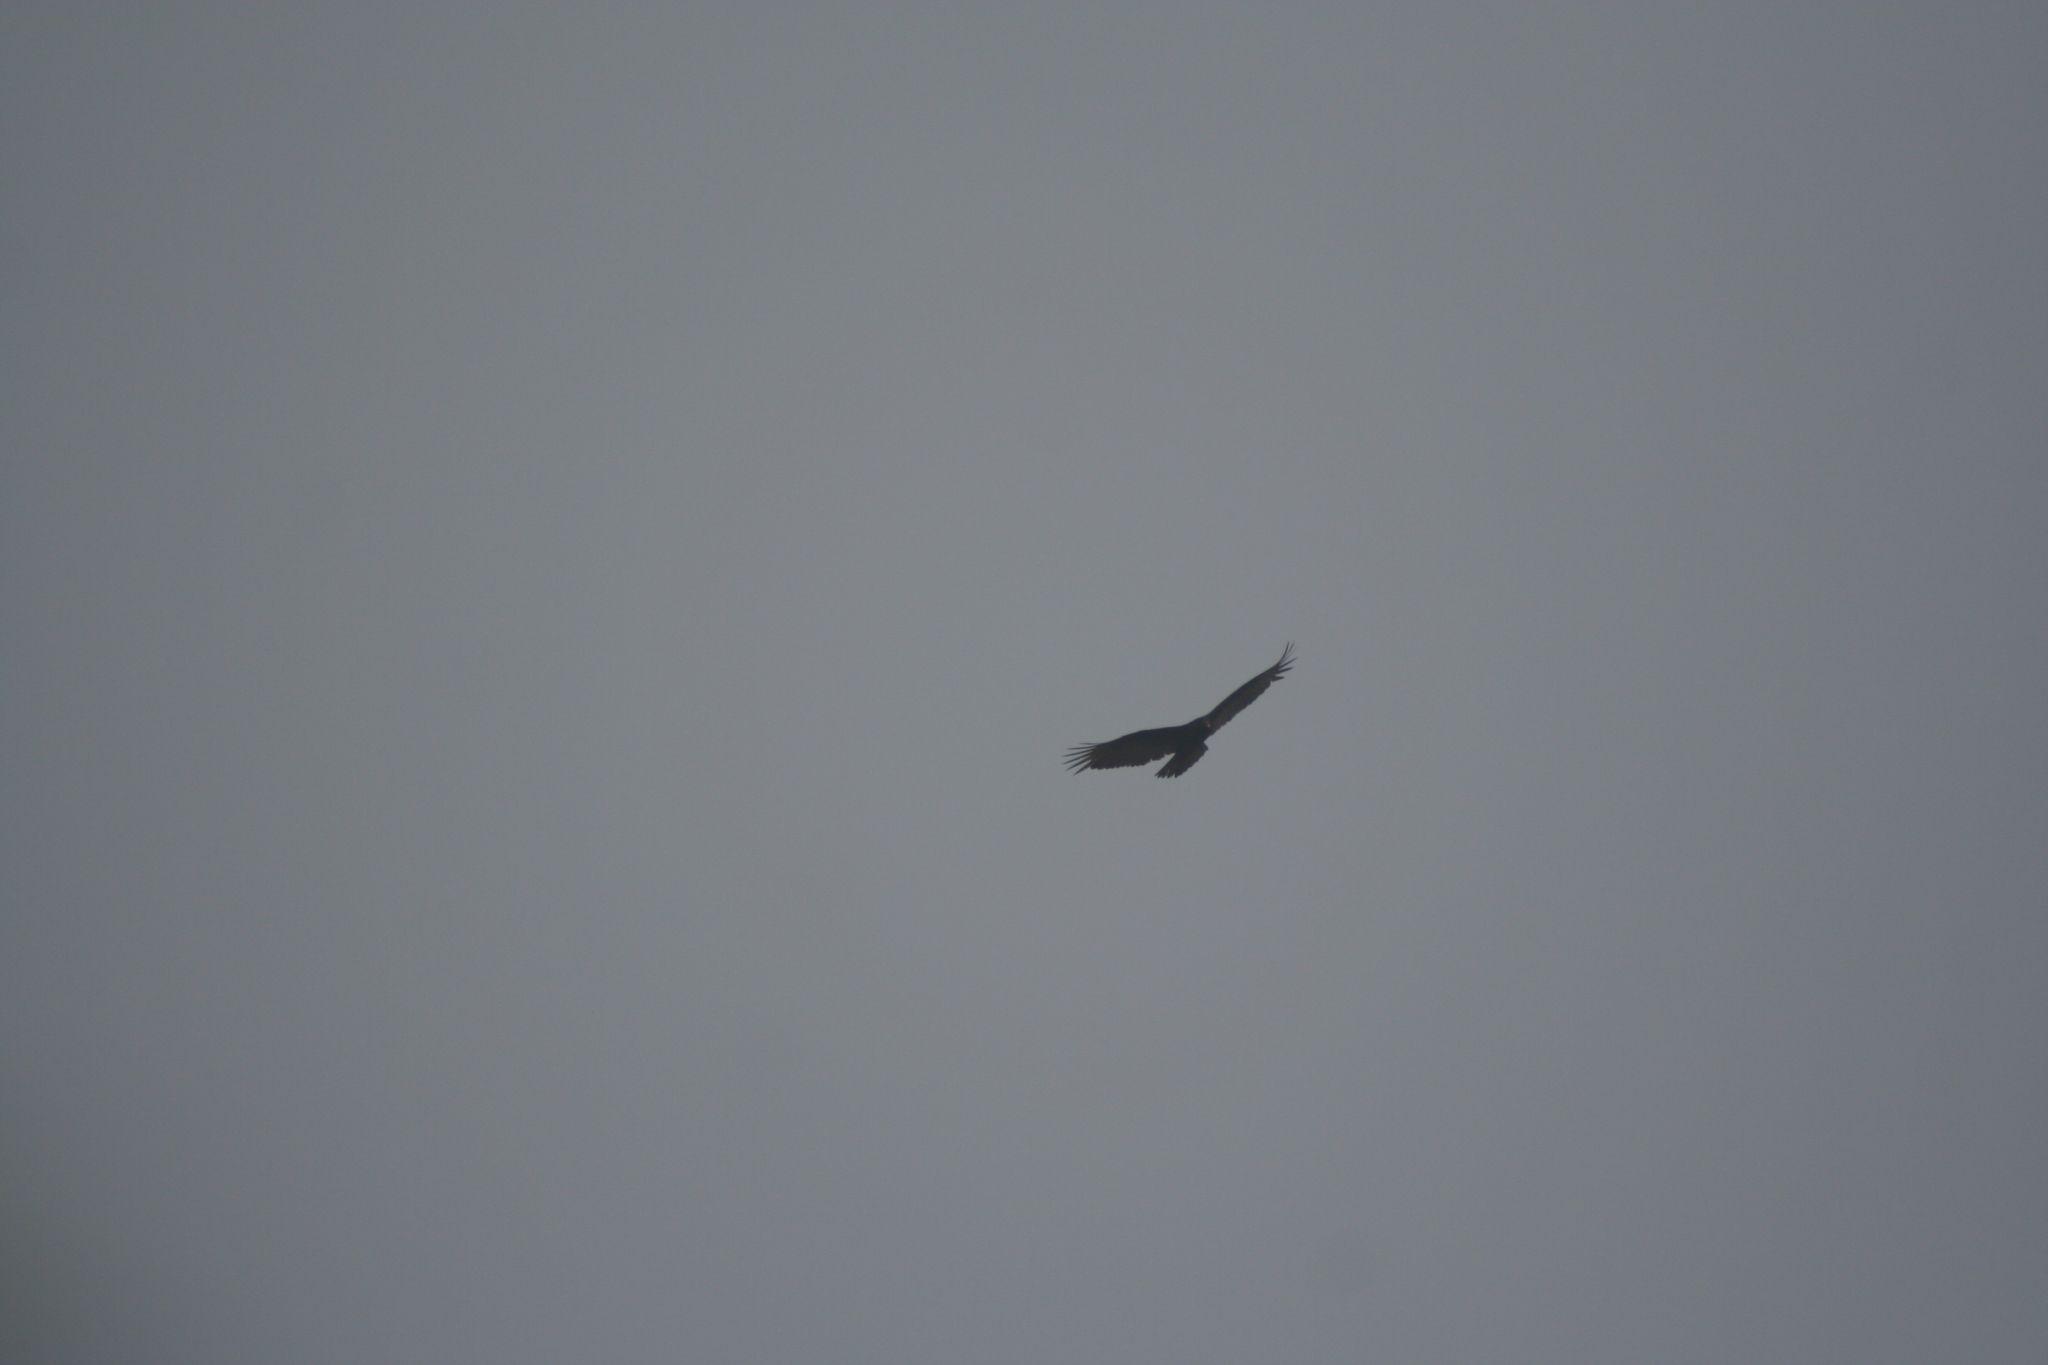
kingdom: Animalia
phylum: Chordata
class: Aves
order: Accipitriformes
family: Cathartidae
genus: Cathartes
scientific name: Cathartes aura
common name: Turkey vulture
